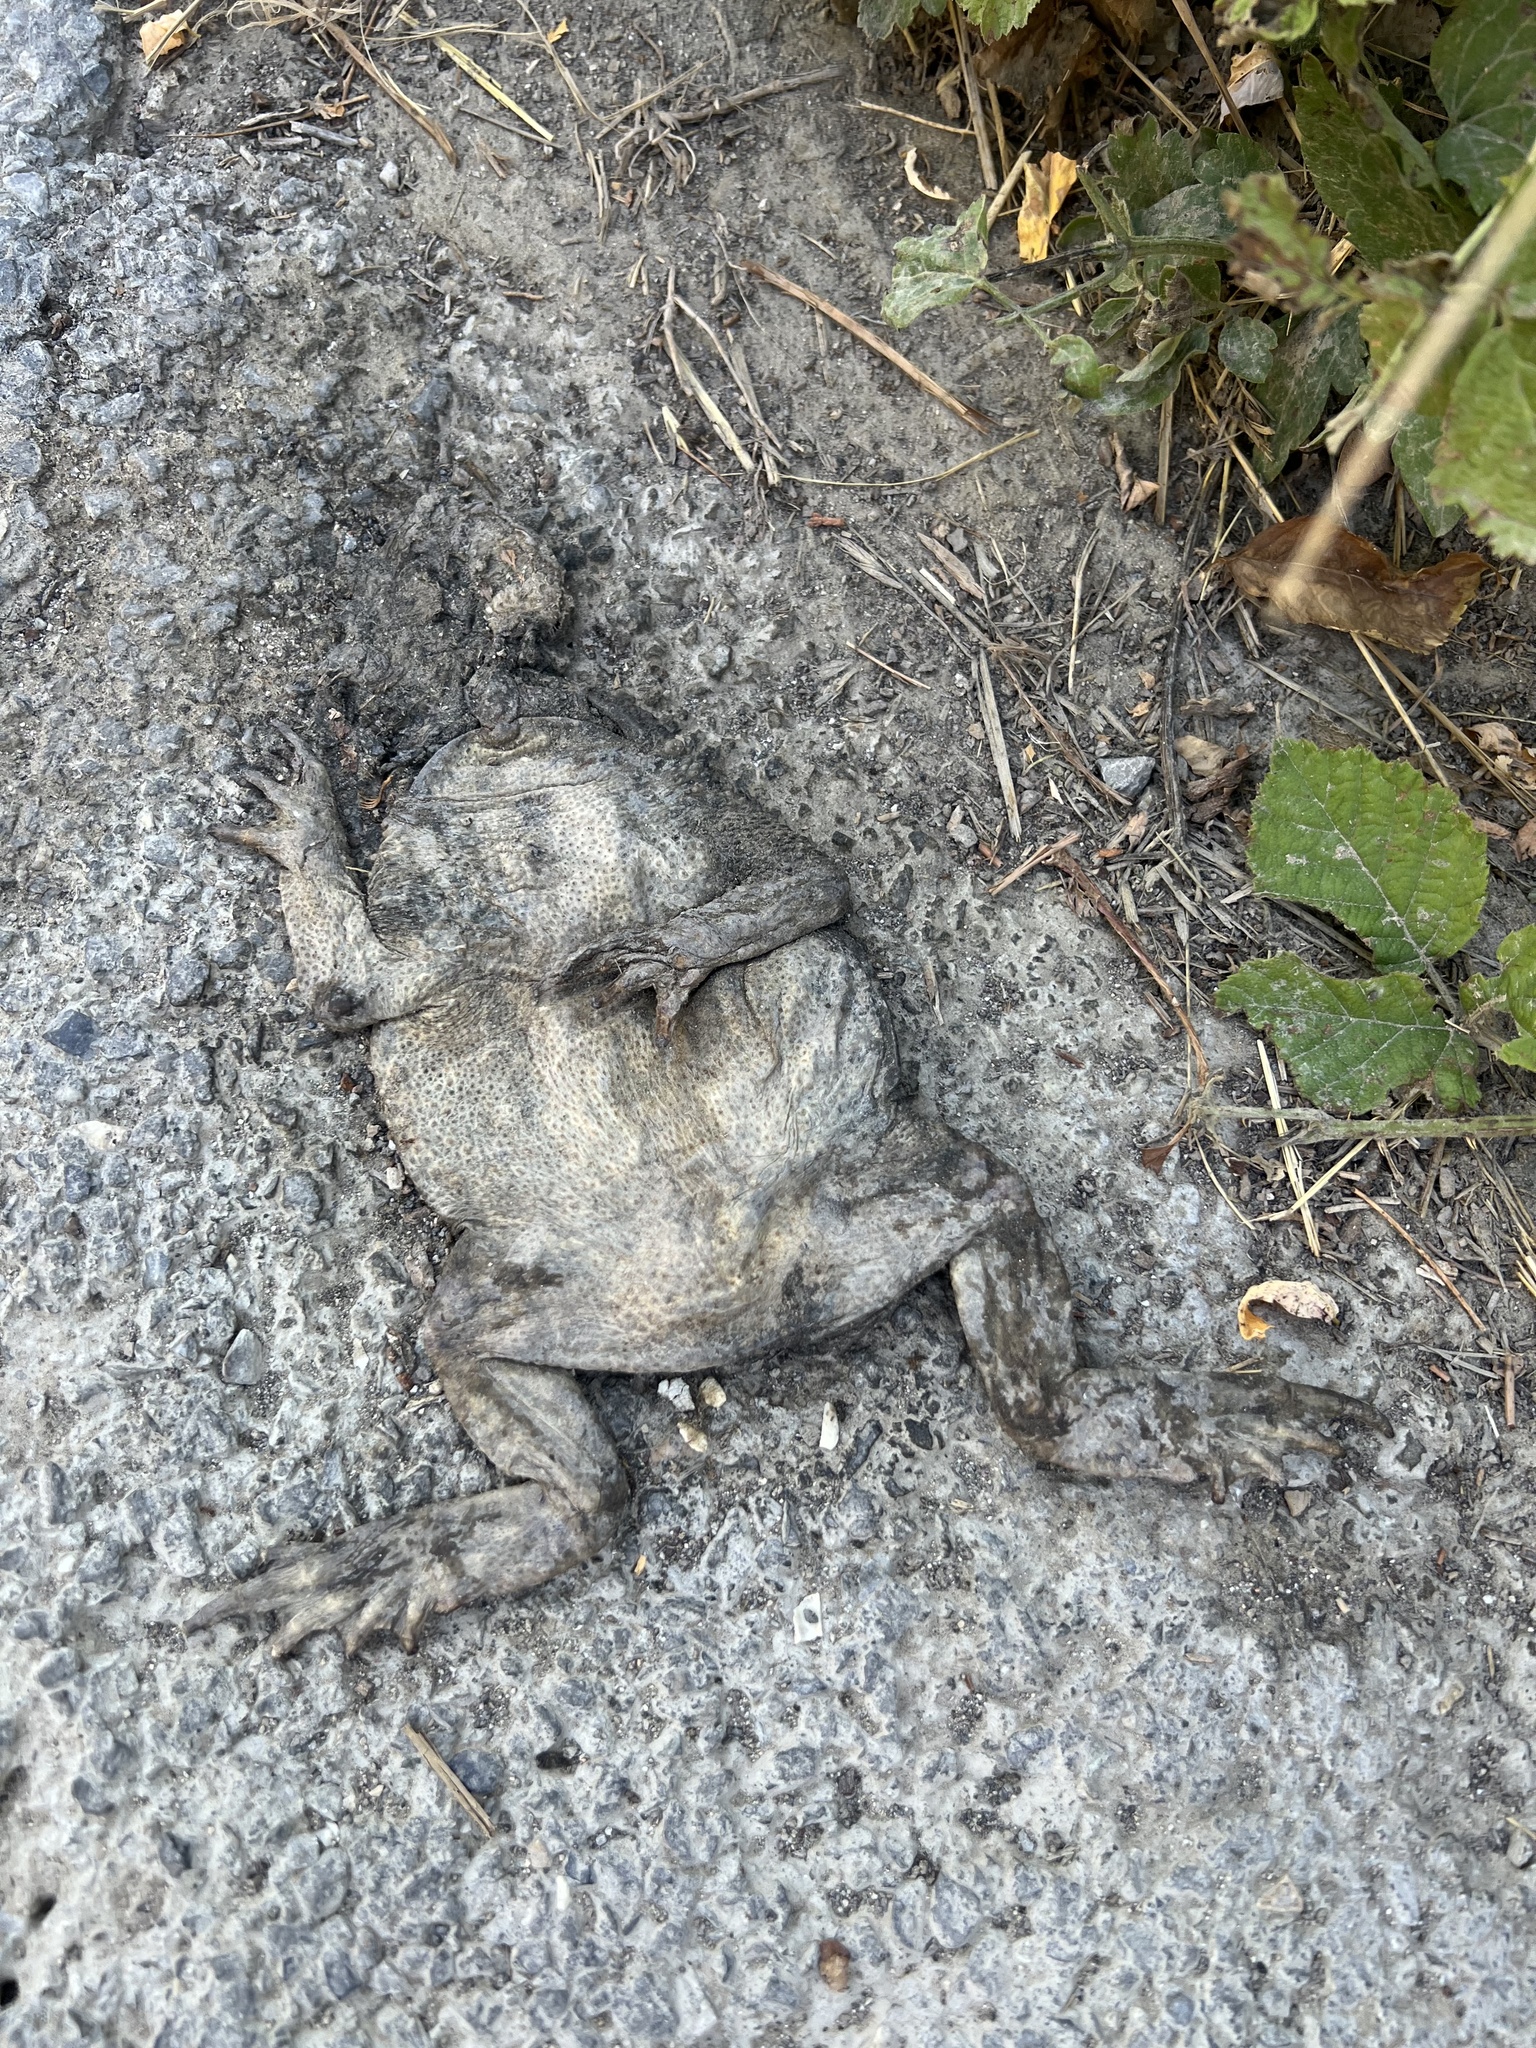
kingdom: Animalia
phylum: Chordata
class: Amphibia
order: Anura
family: Bufonidae
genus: Bufo
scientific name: Bufo spinosus
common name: Western common toad
